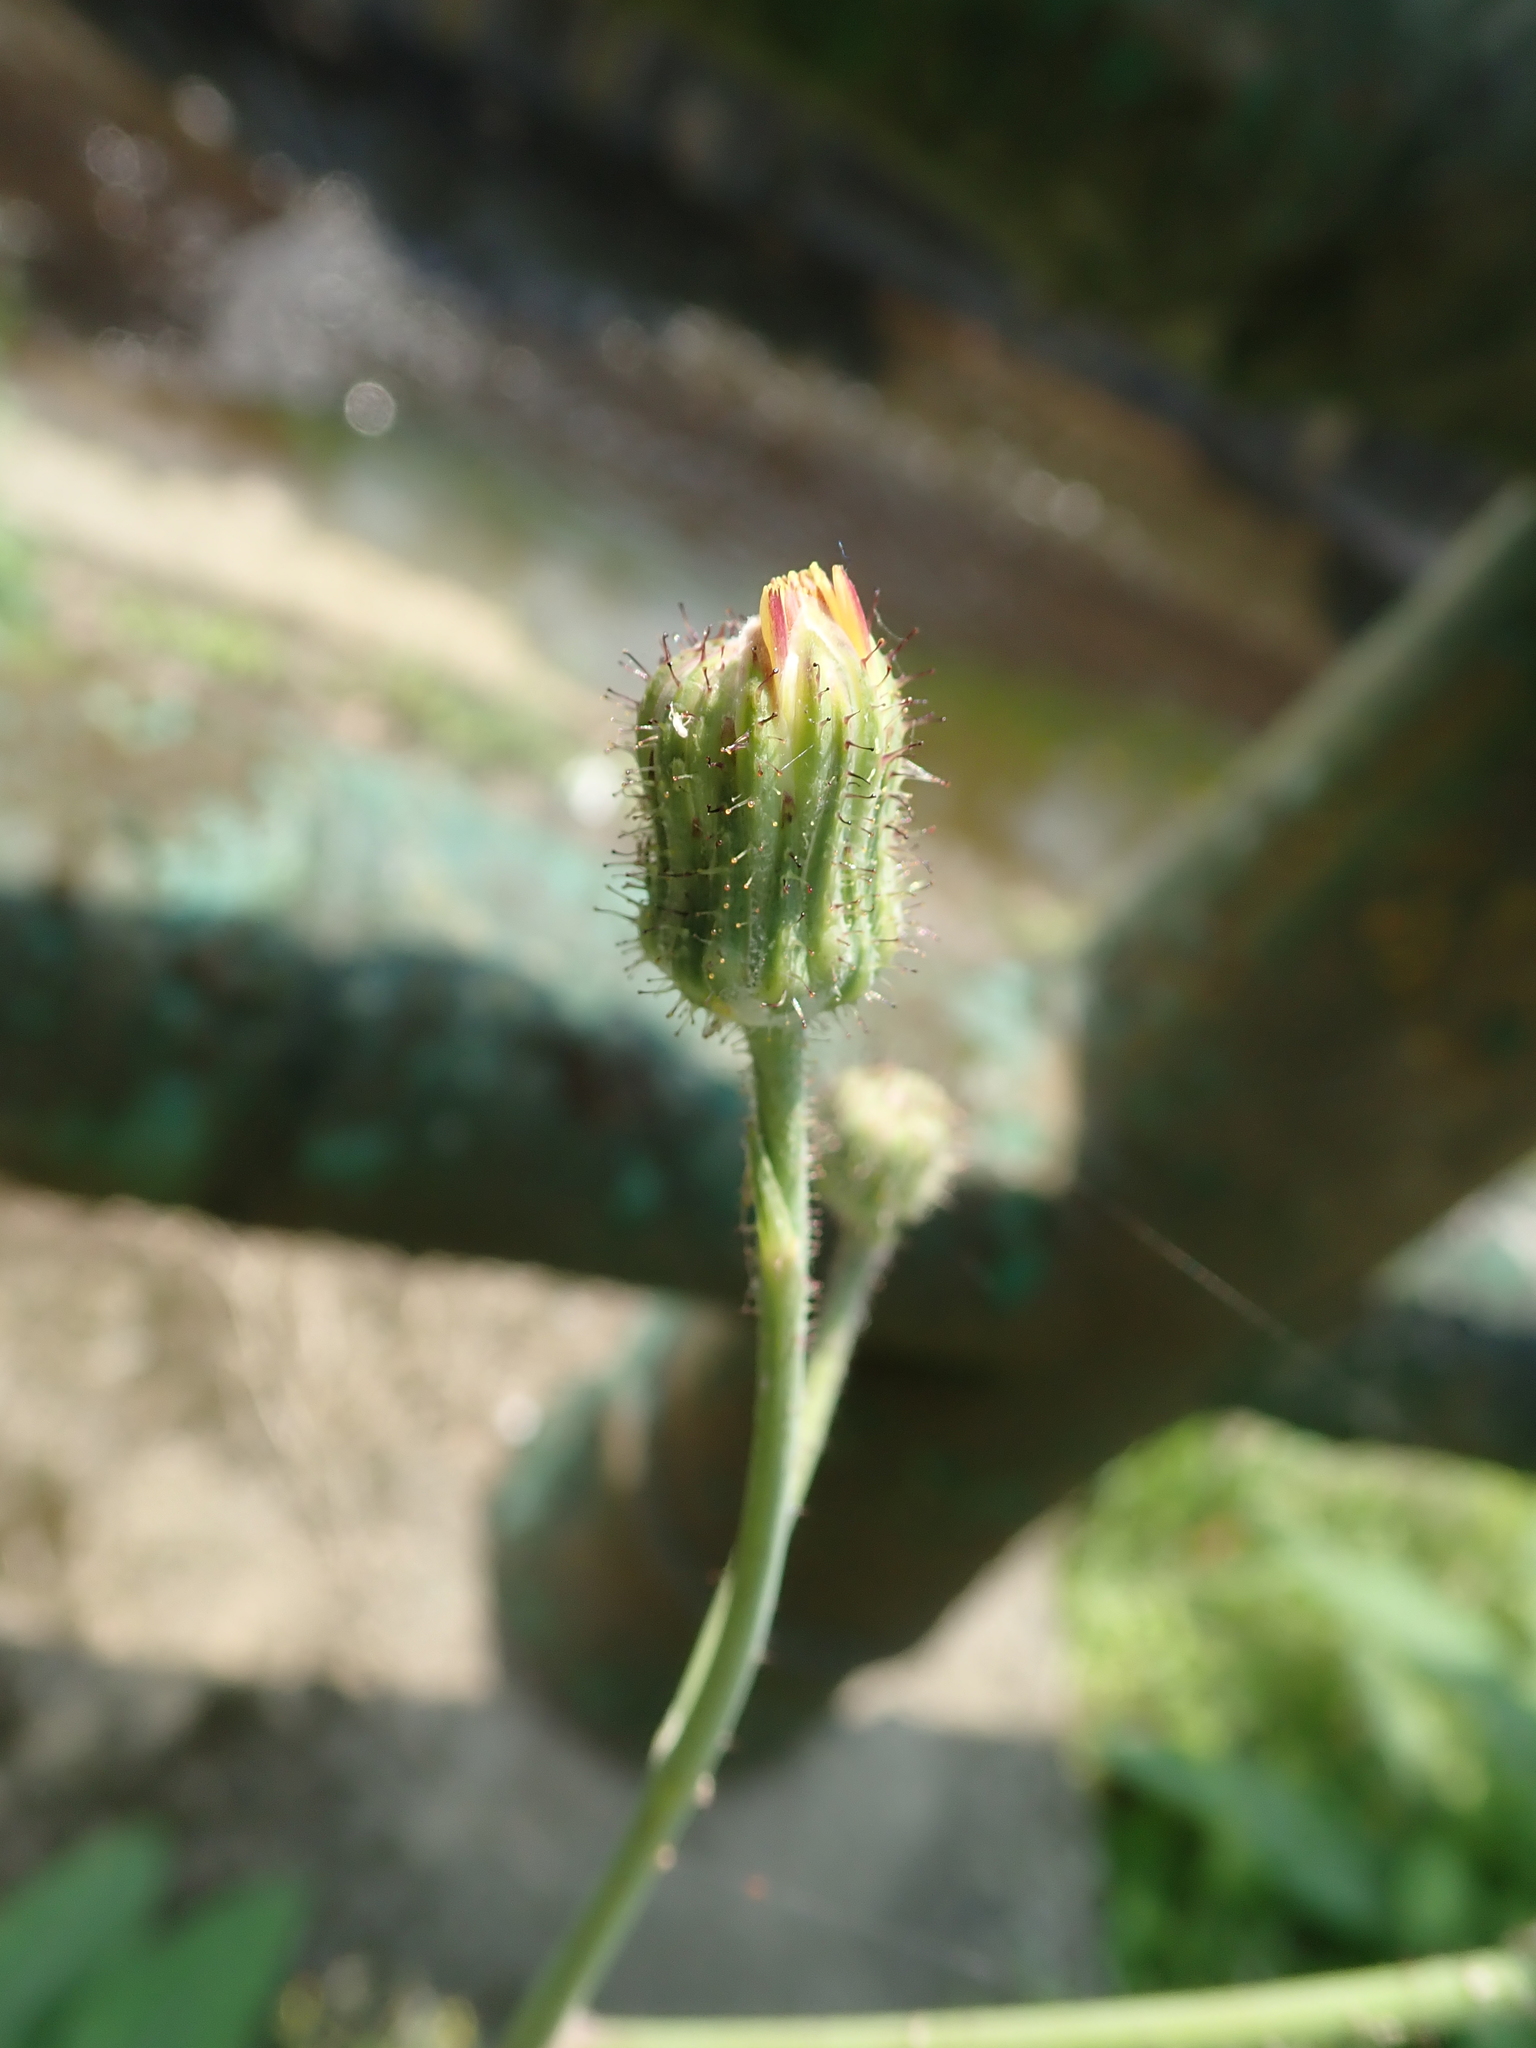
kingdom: Plantae
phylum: Tracheophyta
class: Magnoliopsida
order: Asterales
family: Asteraceae
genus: Sonchus
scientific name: Sonchus arvensis
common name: Perennial sow-thistle
